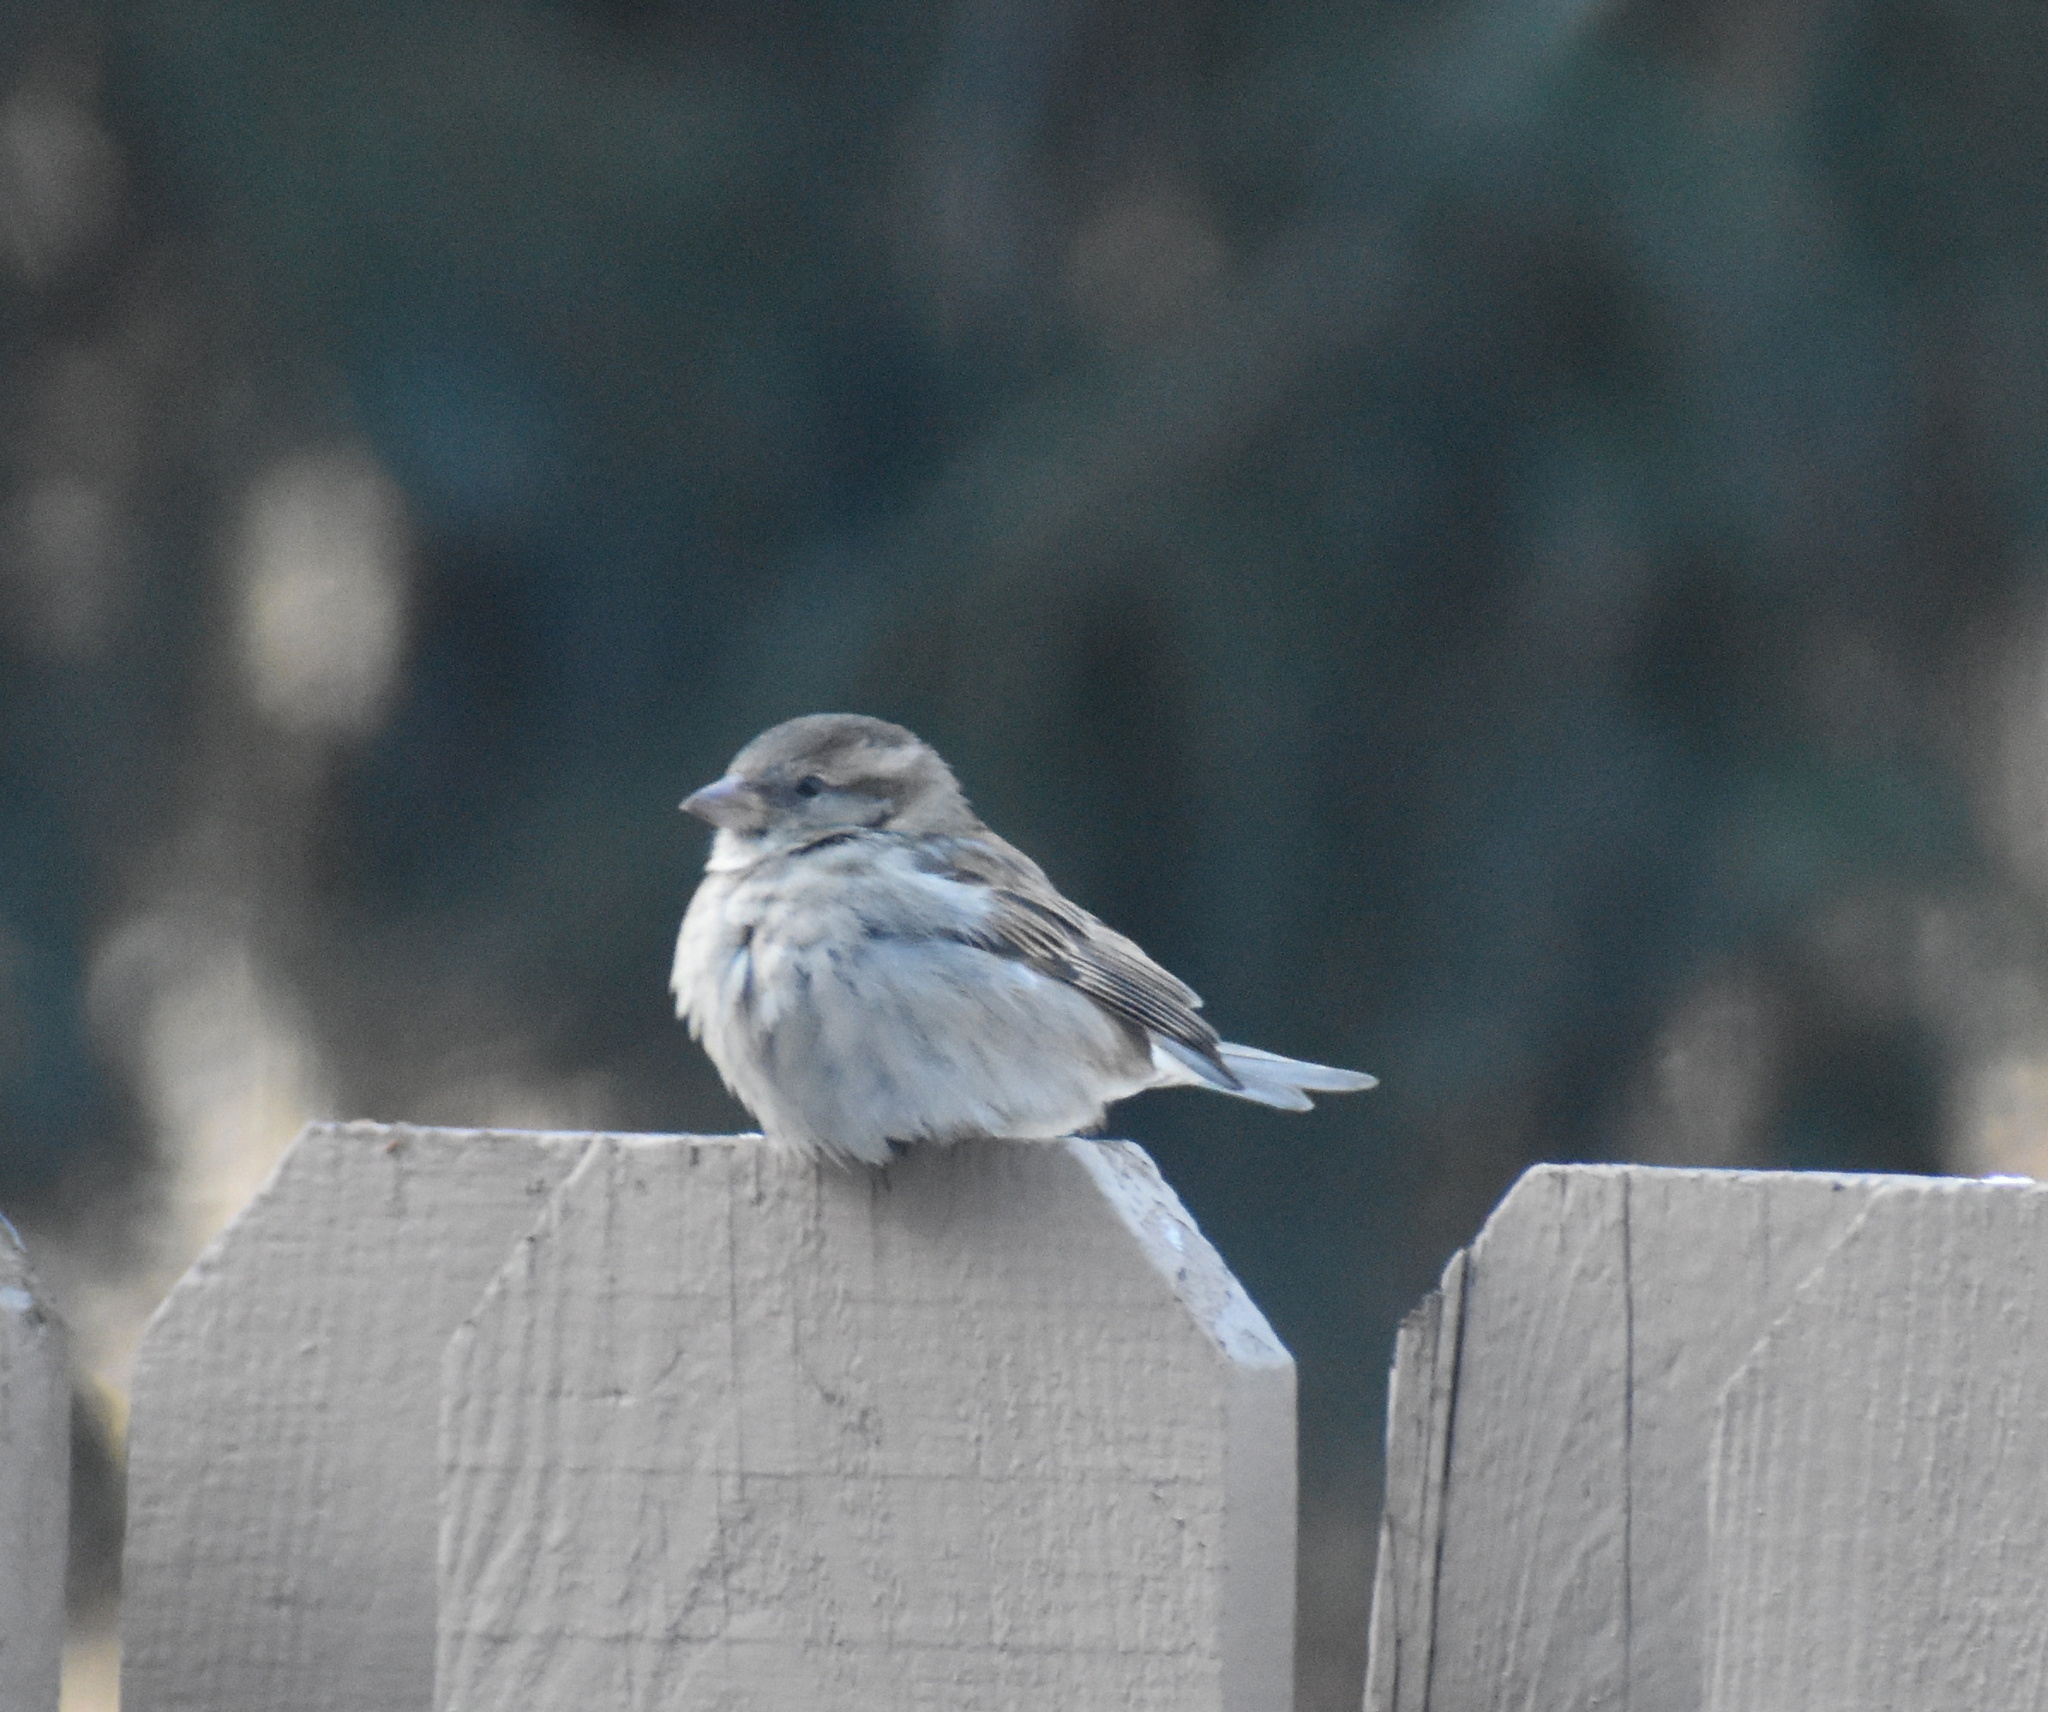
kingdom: Animalia
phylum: Chordata
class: Aves
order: Passeriformes
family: Passeridae
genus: Passer
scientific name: Passer domesticus
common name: House sparrow
